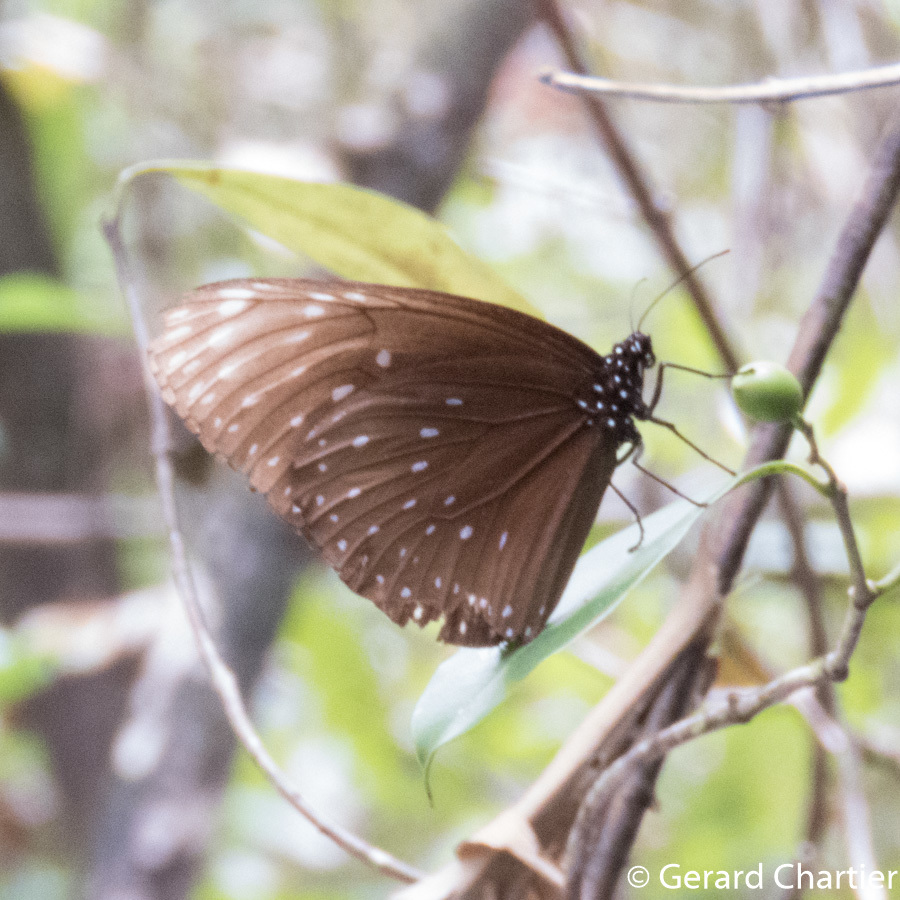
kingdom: Animalia
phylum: Arthropoda
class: Insecta
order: Lepidoptera
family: Nymphalidae
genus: Euploea
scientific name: Euploea phaenareta
